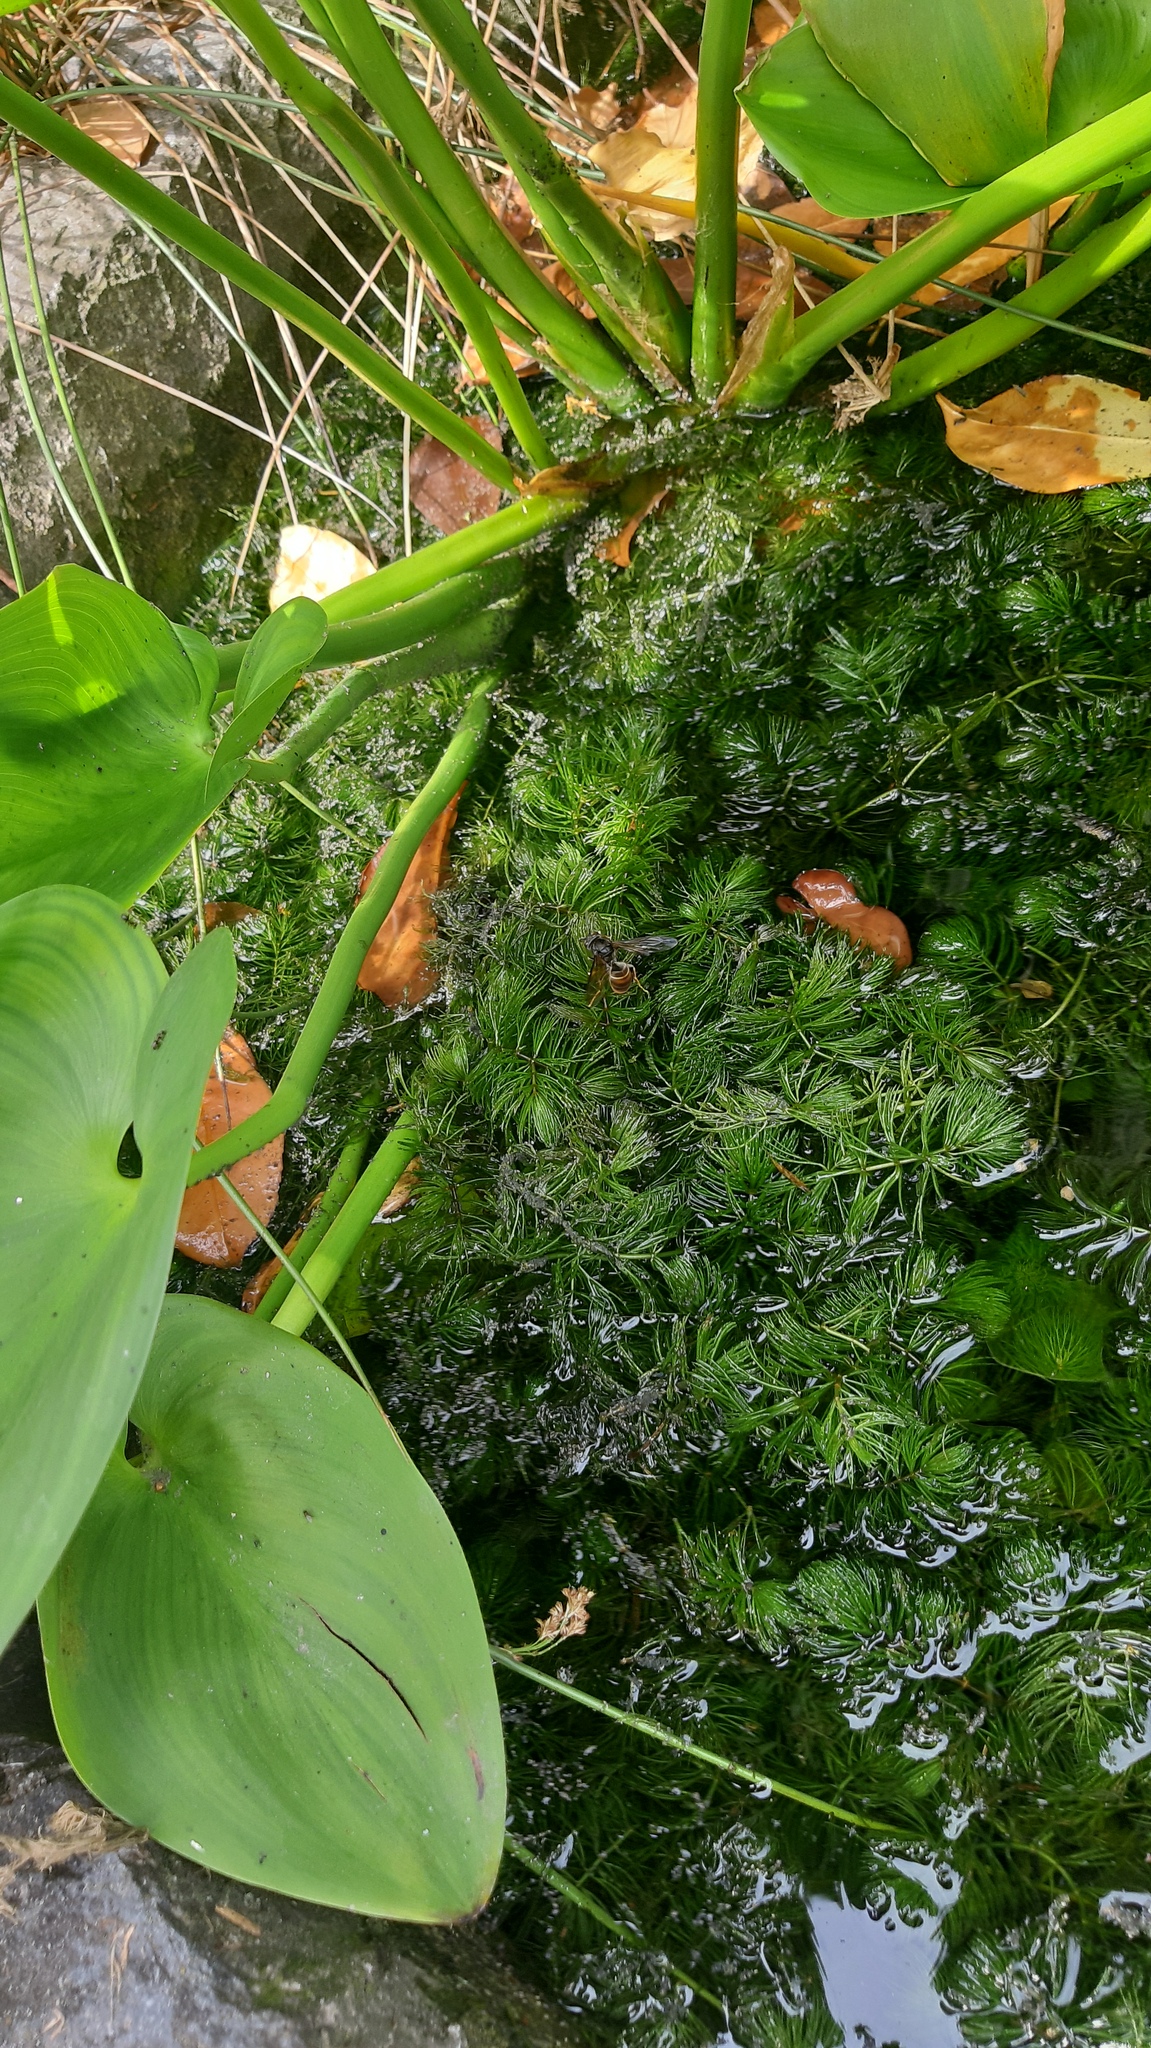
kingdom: Animalia
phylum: Arthropoda
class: Insecta
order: Hymenoptera
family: Vespidae
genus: Vespa
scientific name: Vespa velutina
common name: Asian hornet
